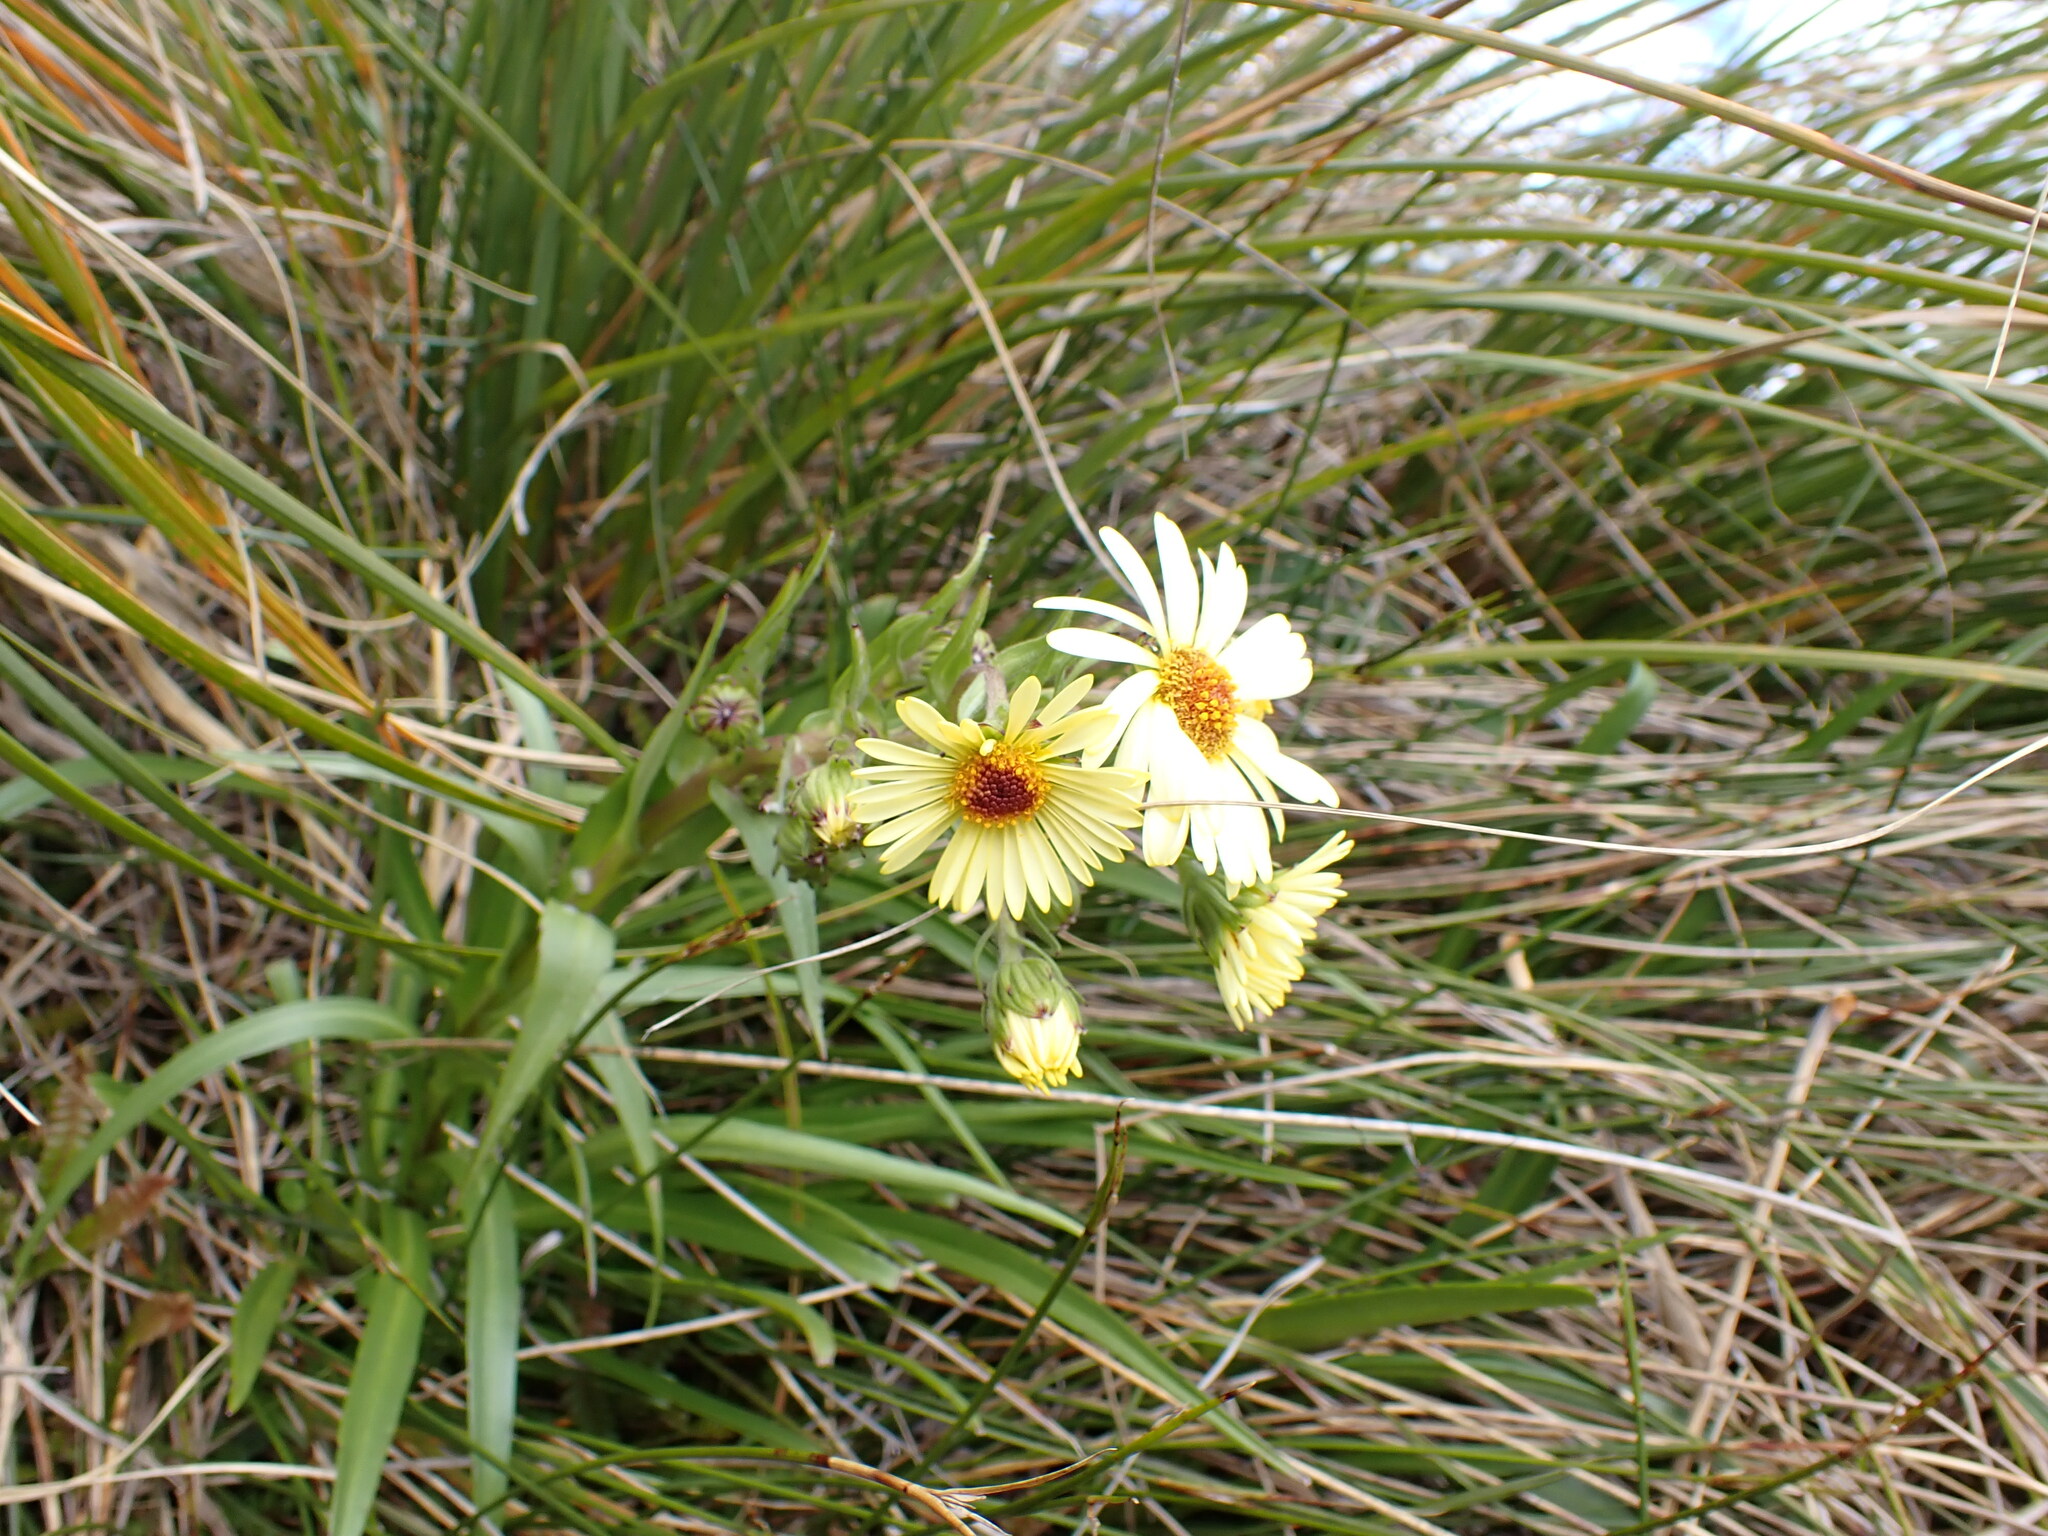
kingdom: Plantae
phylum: Tracheophyta
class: Magnoliopsida
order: Asterales
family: Asteraceae
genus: Dolichoglottis
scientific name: Dolichoglottis
